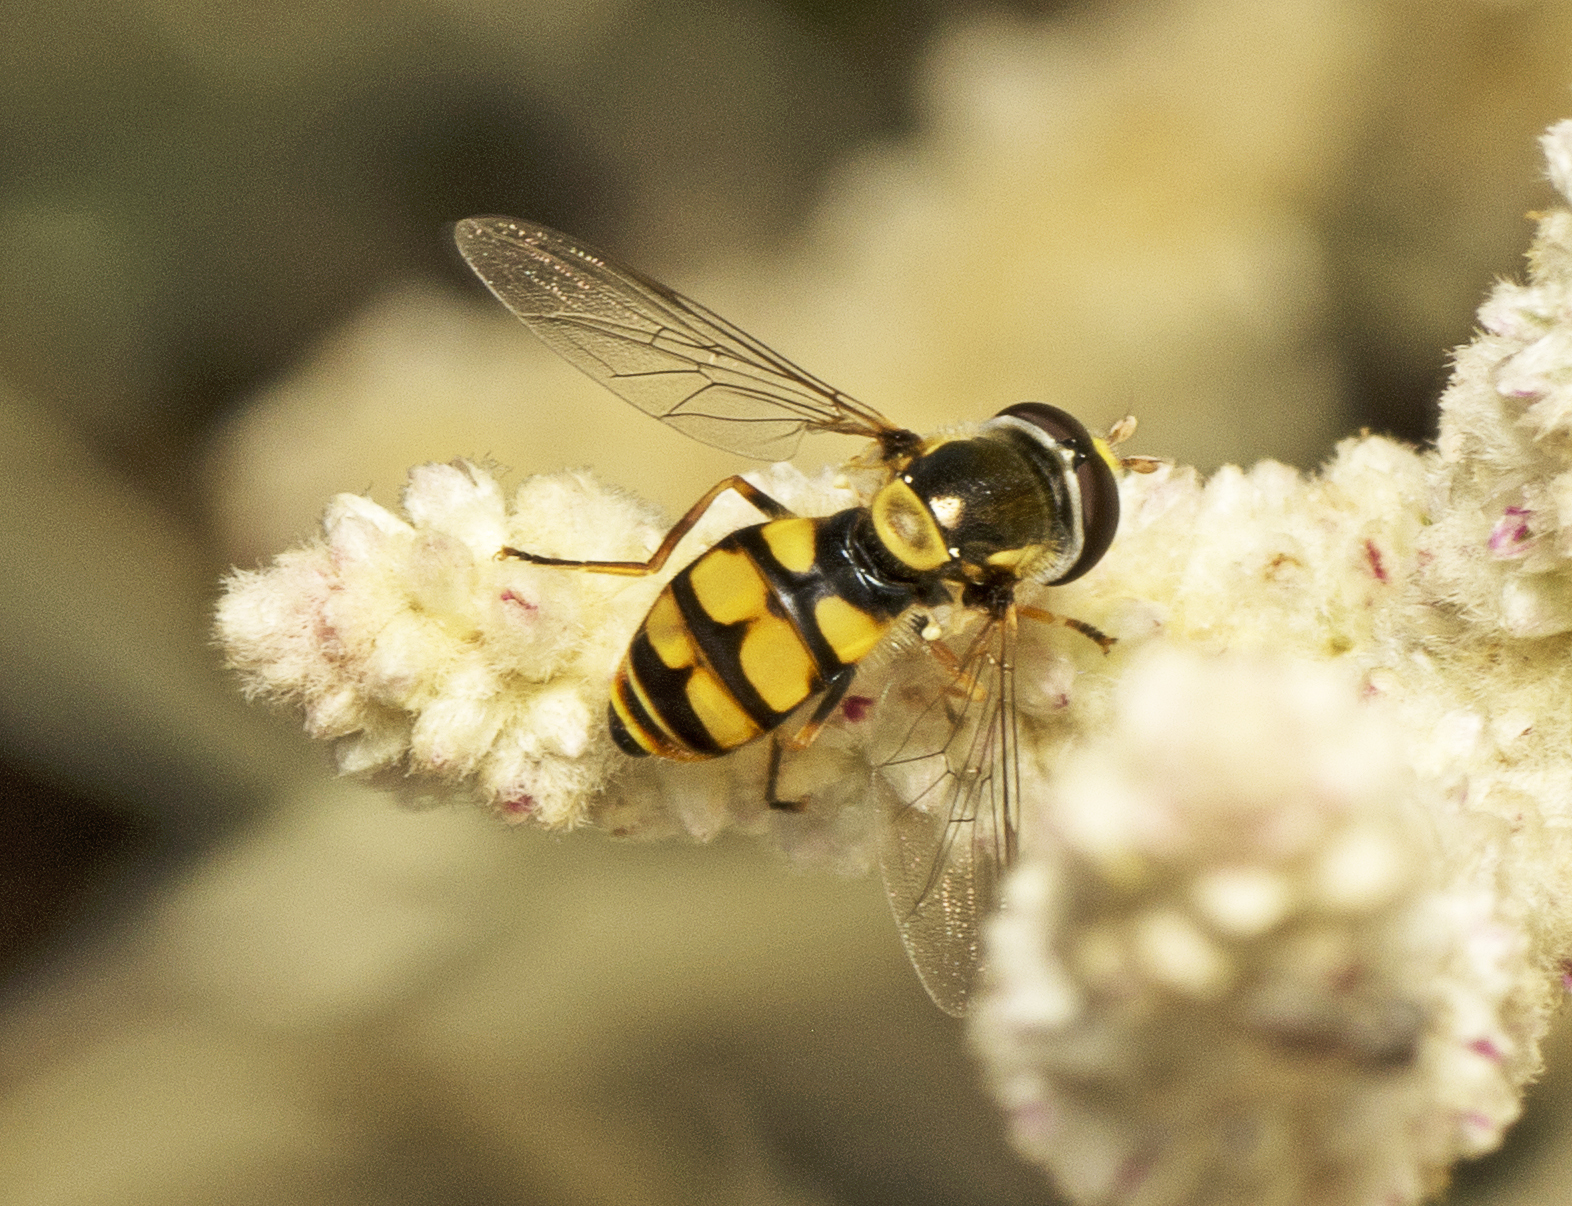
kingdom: Animalia
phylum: Arthropoda
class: Insecta
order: Diptera
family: Syrphidae
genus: Simosyrphus
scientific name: Simosyrphus grandicornis
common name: Hoverfly
